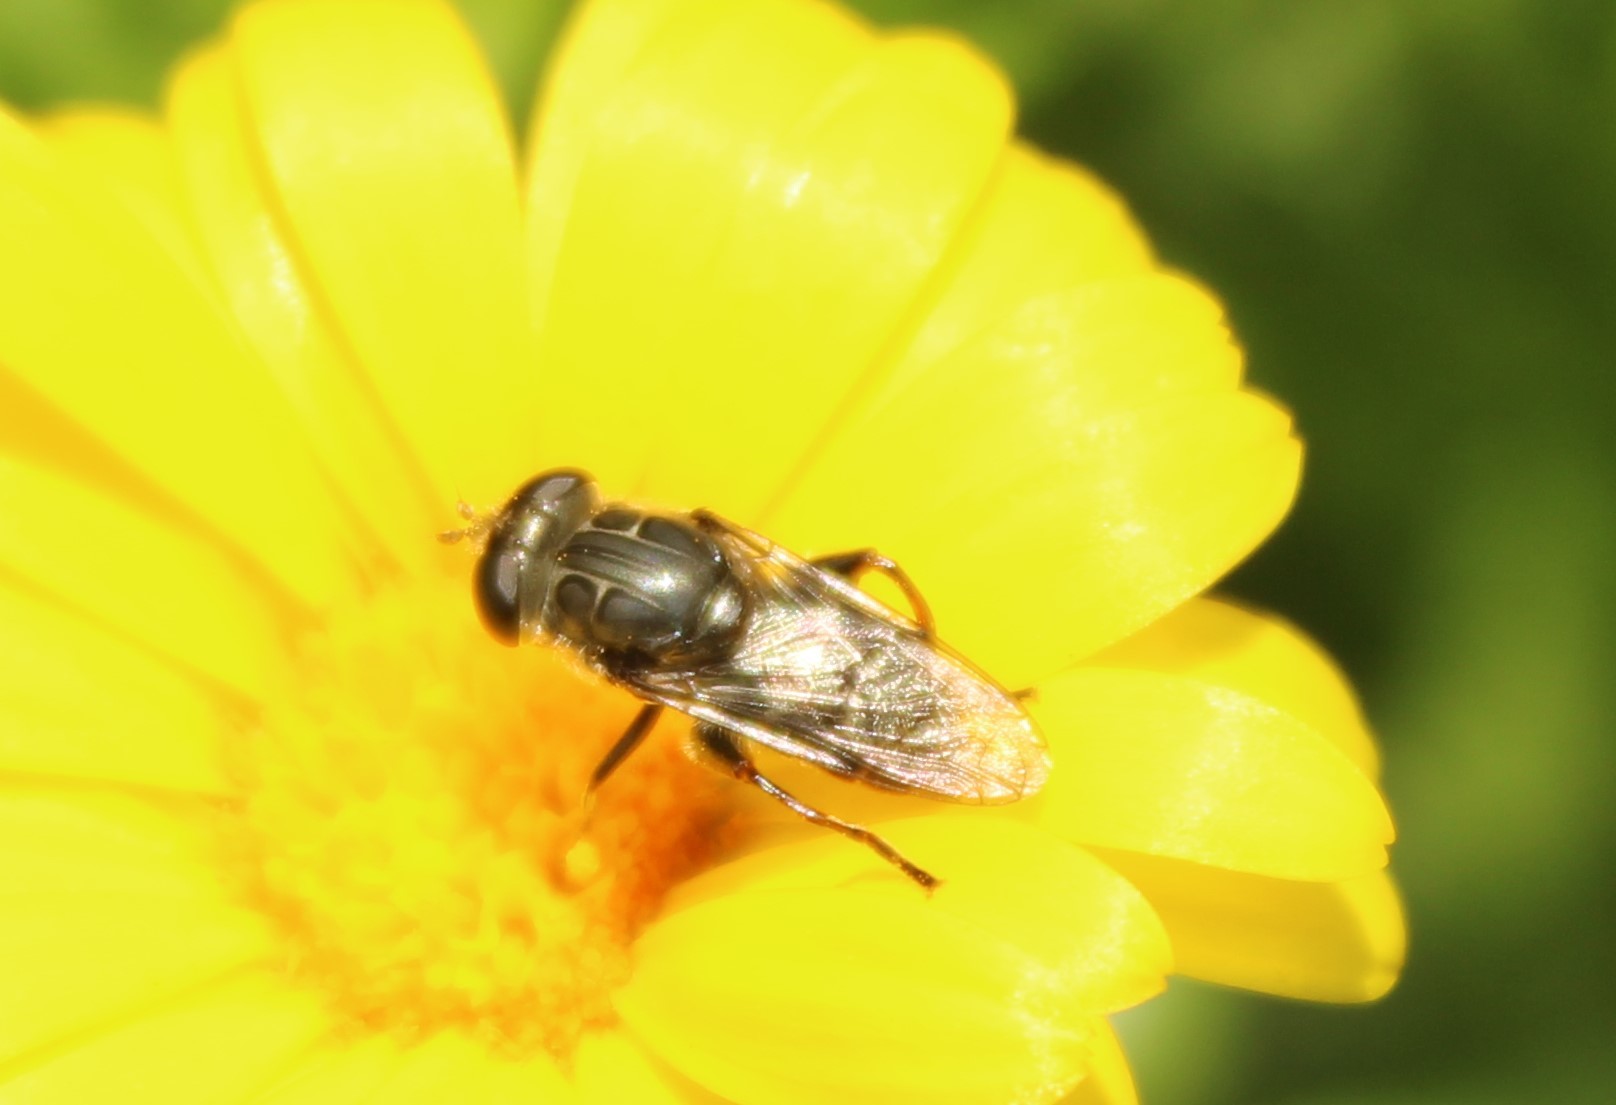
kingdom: Animalia
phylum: Arthropoda
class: Insecta
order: Diptera
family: Syrphidae
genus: Asemosyrphus
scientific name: Asemosyrphus
